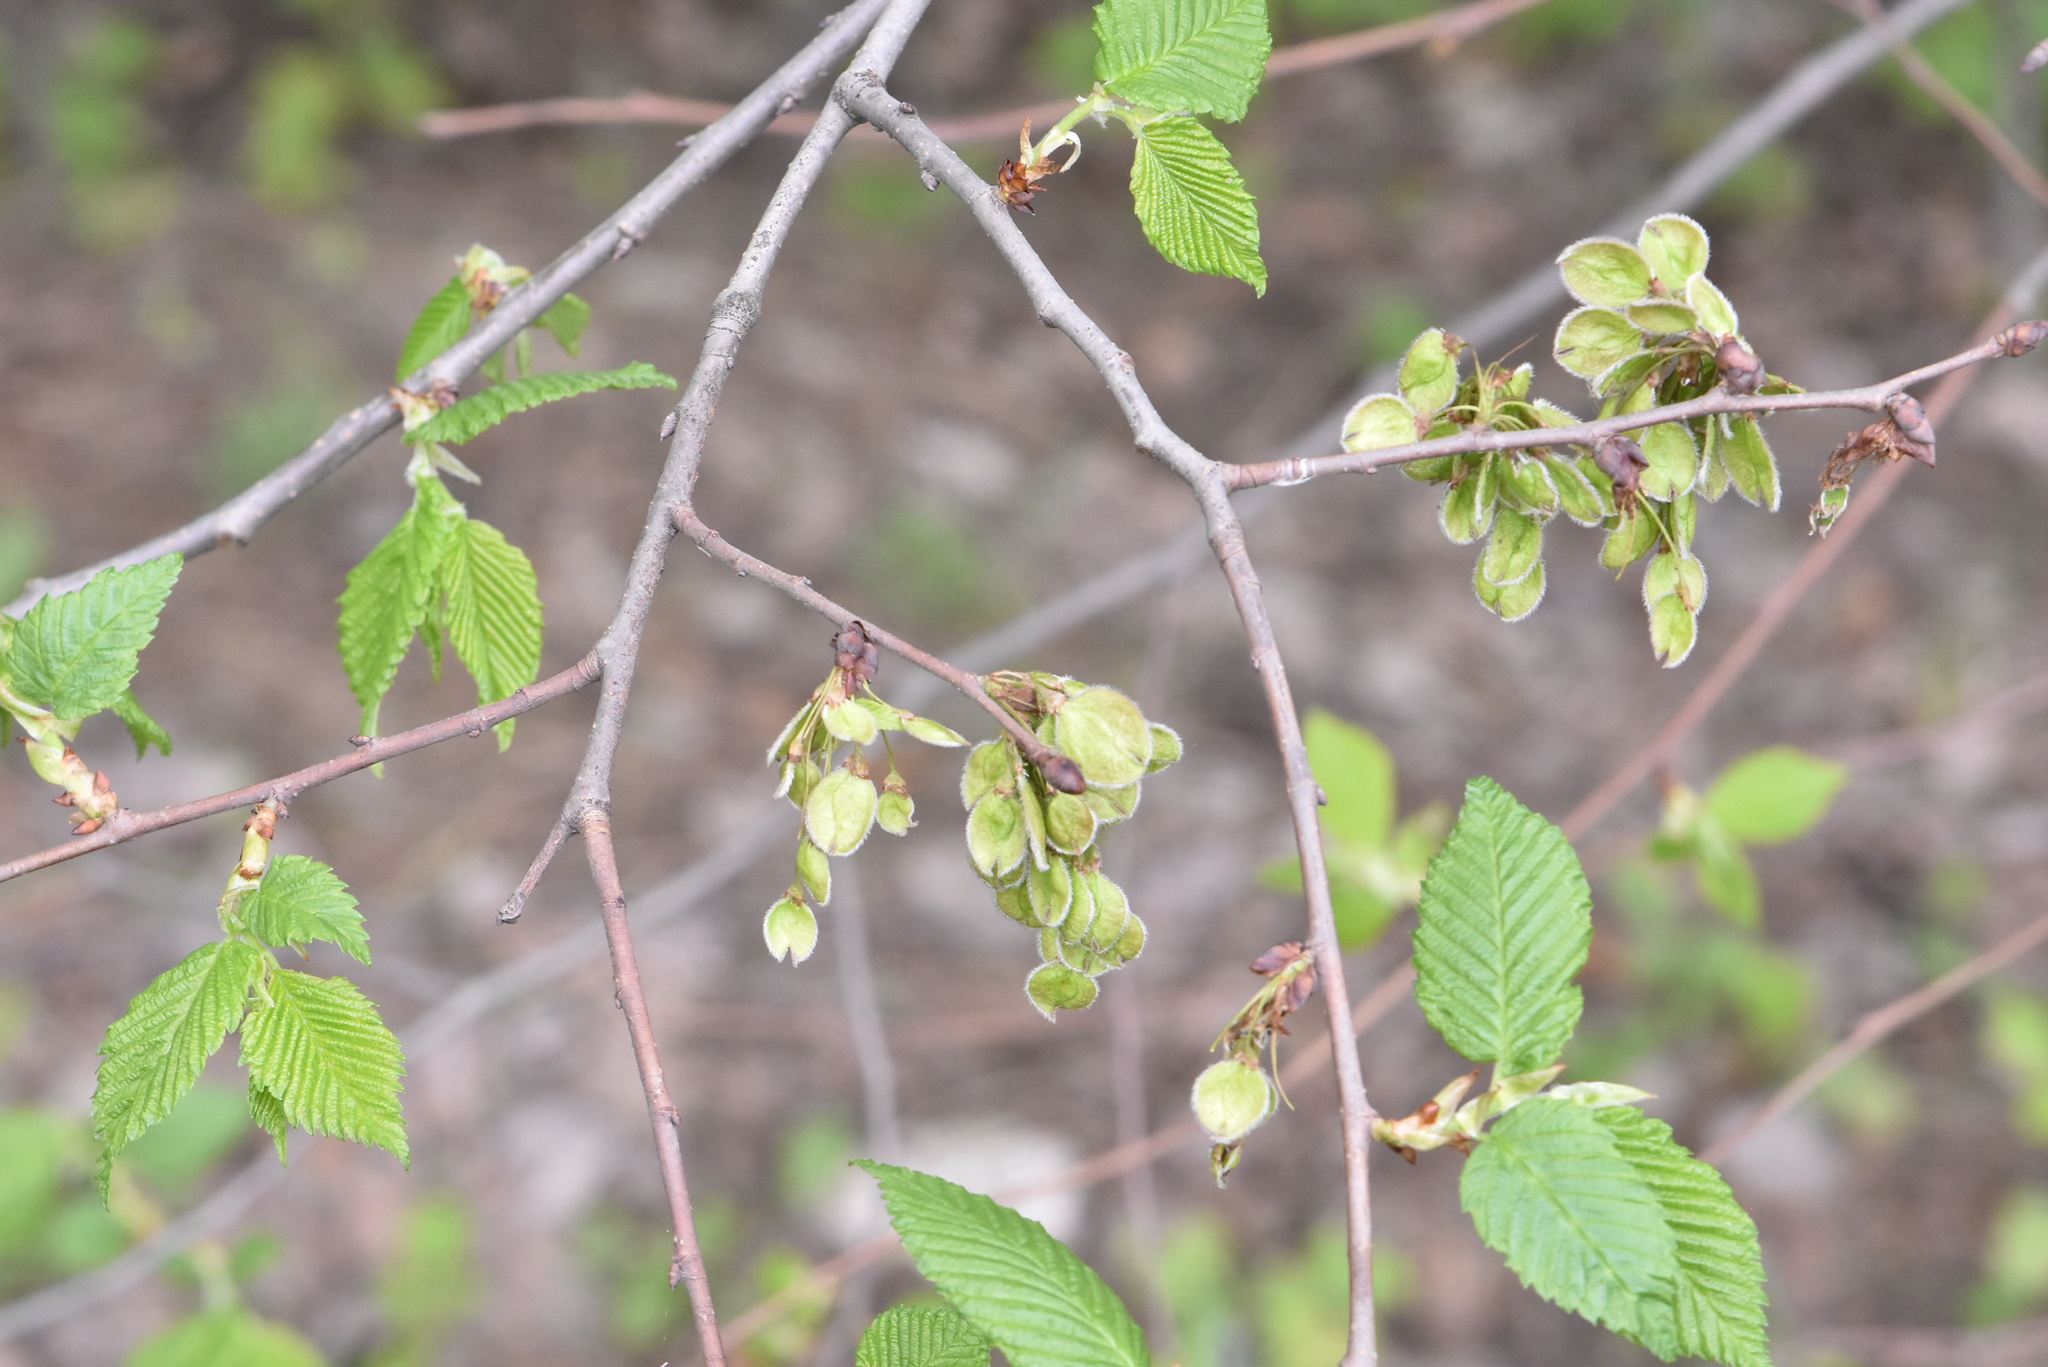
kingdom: Plantae
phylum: Tracheophyta
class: Magnoliopsida
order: Rosales
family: Ulmaceae
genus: Ulmus
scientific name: Ulmus laevis
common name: European white-elm
